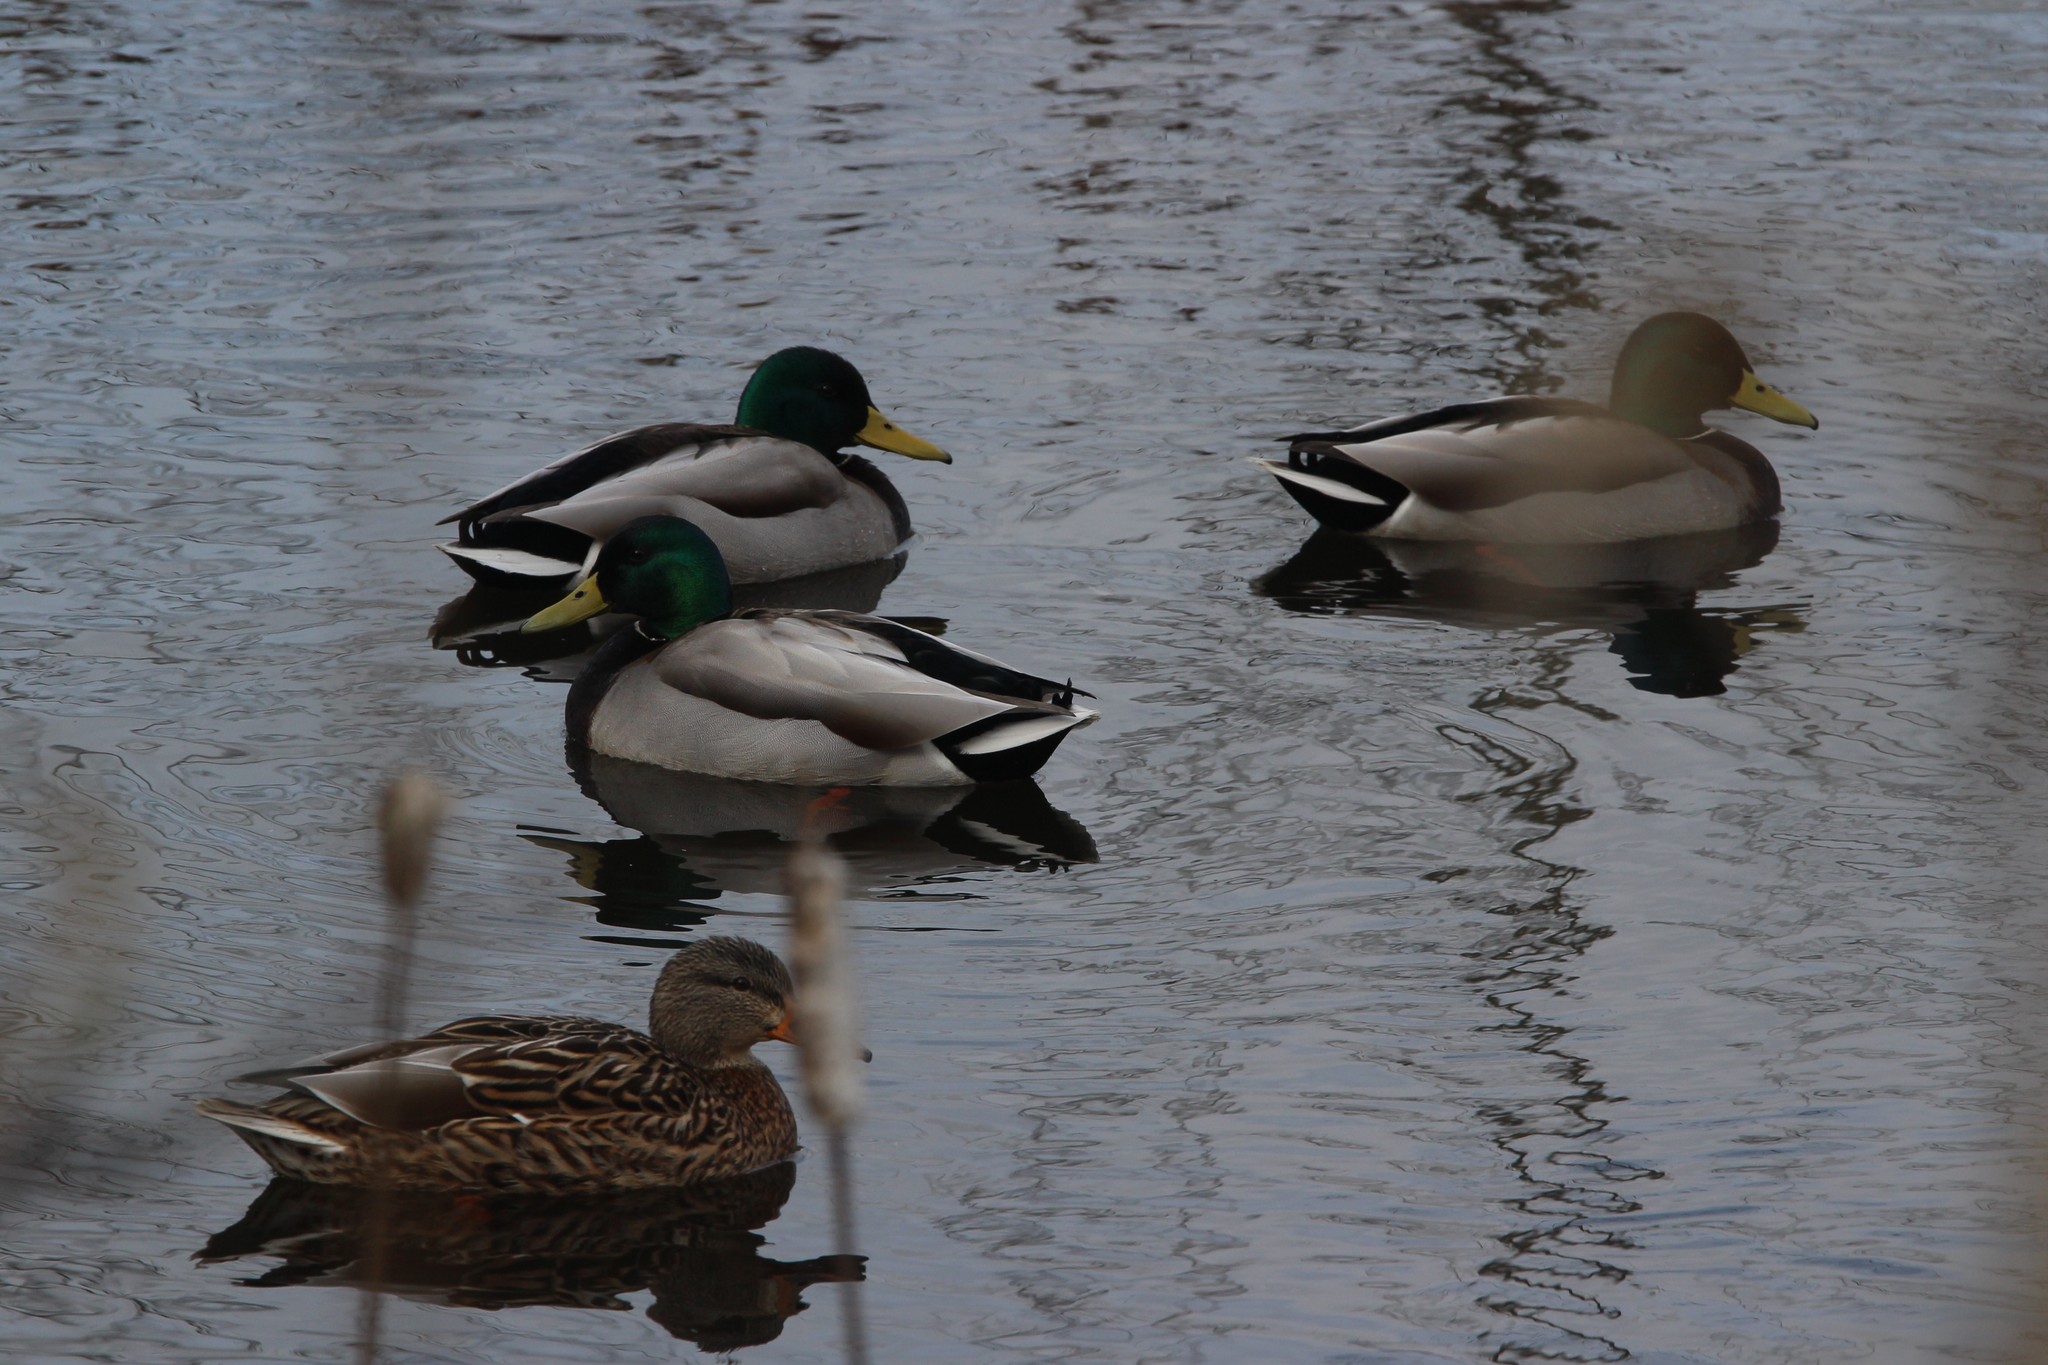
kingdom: Animalia
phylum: Chordata
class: Aves
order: Anseriformes
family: Anatidae
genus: Anas
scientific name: Anas platyrhynchos
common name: Mallard
